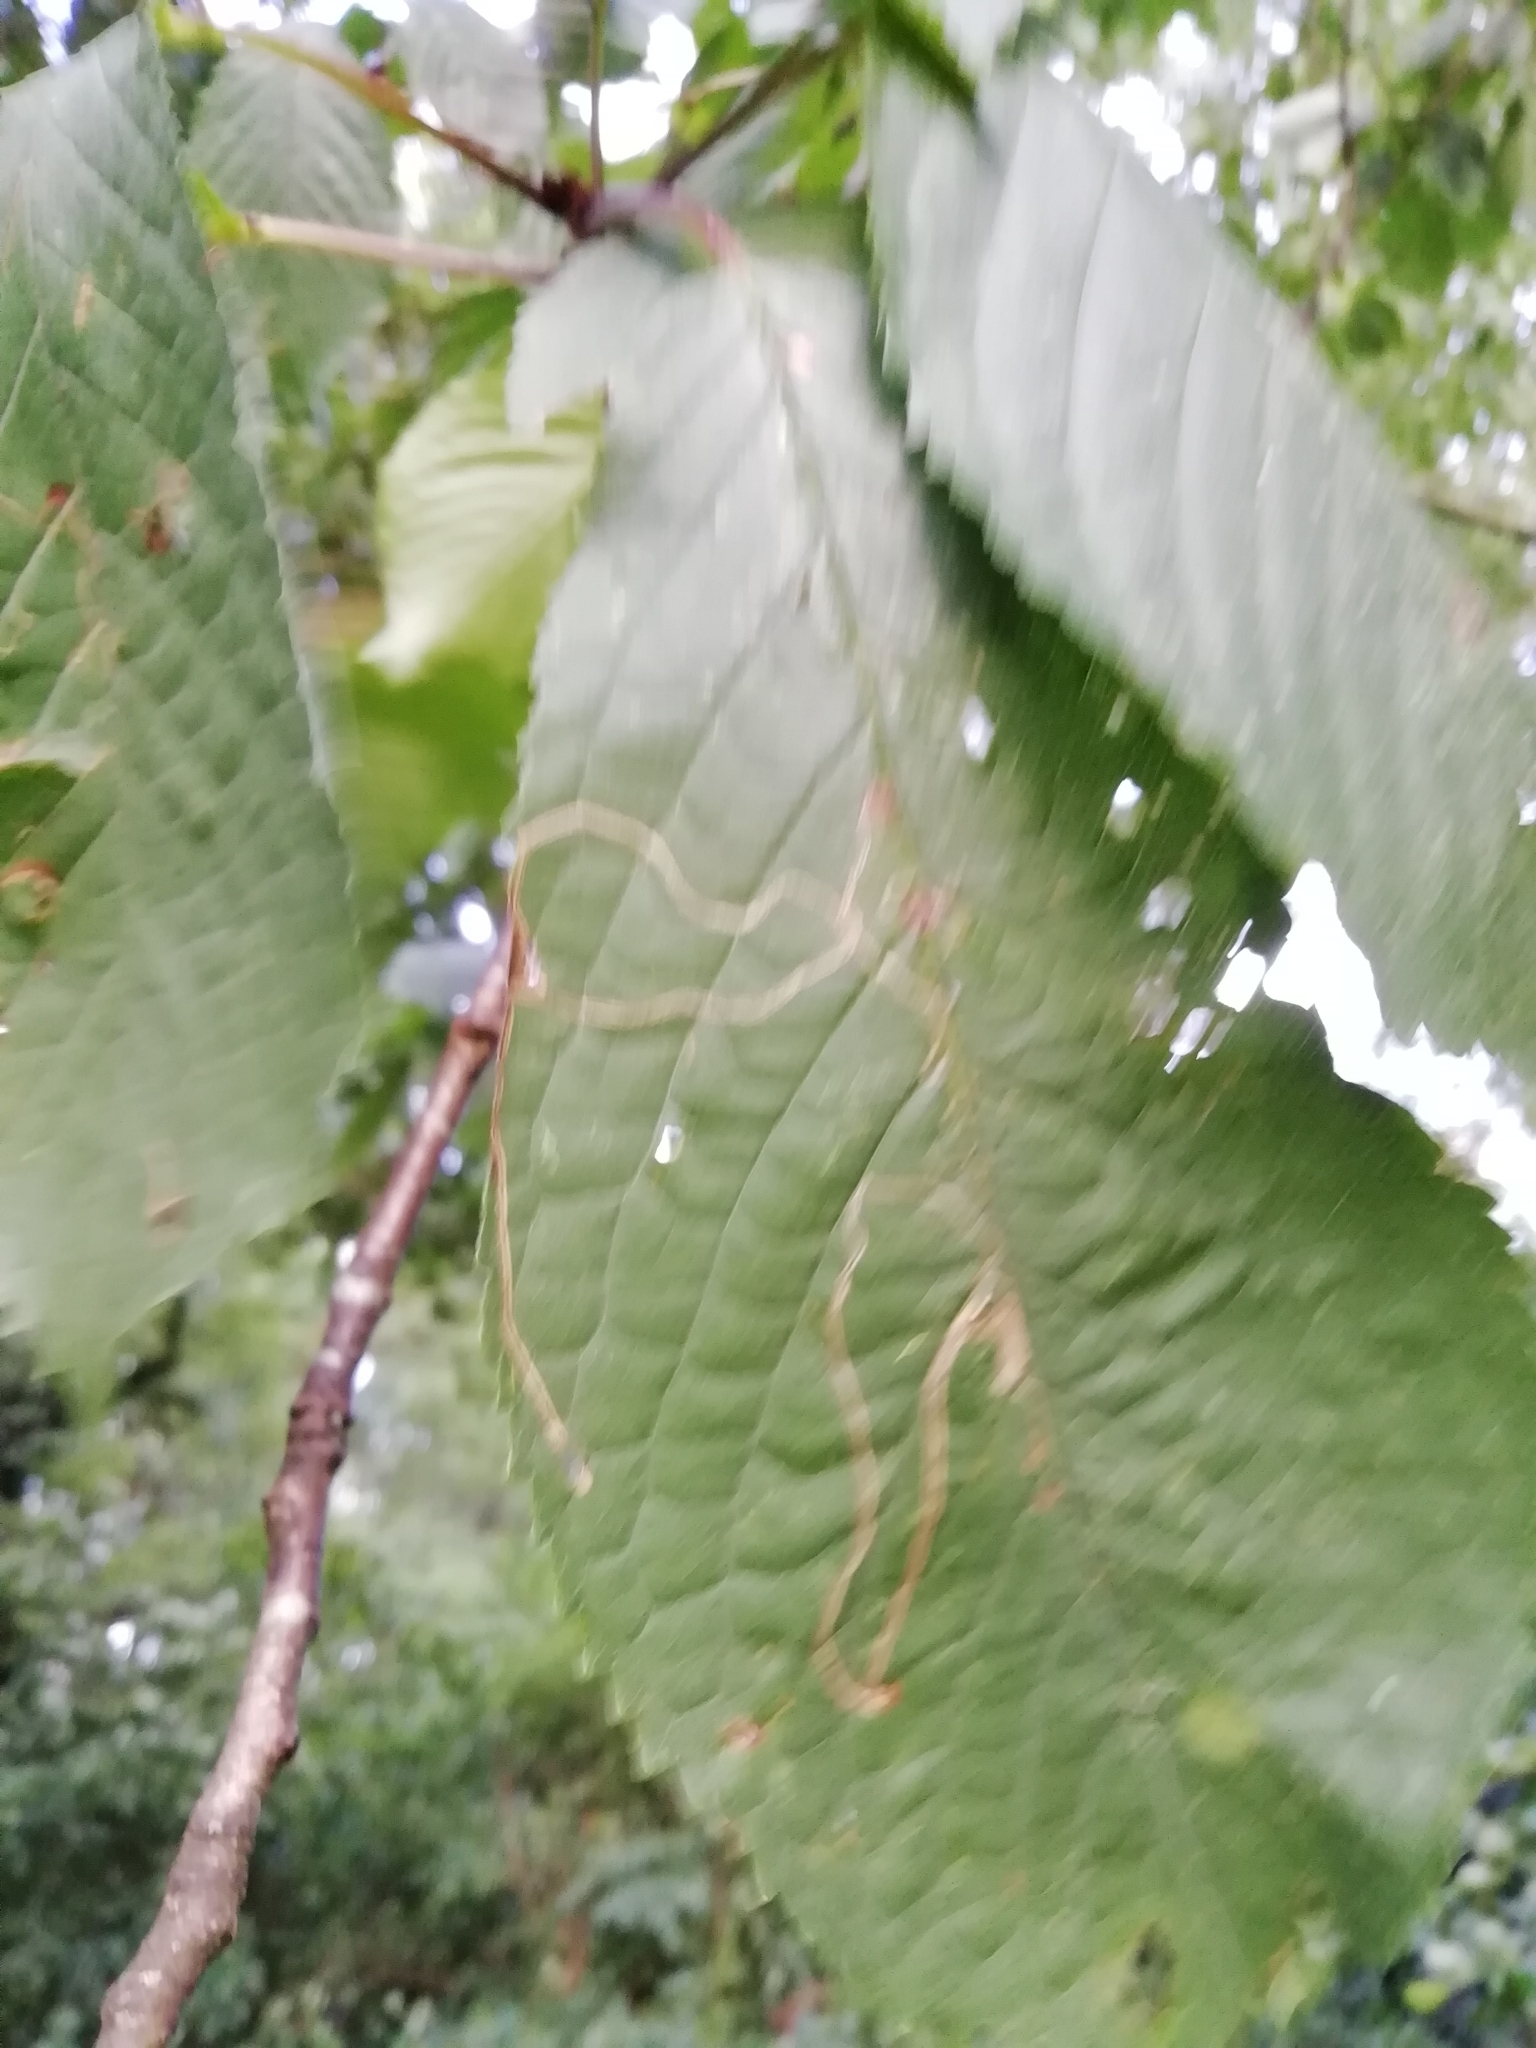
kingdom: Animalia
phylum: Arthropoda
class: Insecta
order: Lepidoptera
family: Lyonetiidae
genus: Lyonetia
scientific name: Lyonetia clerkella
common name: Apple leaf miner
